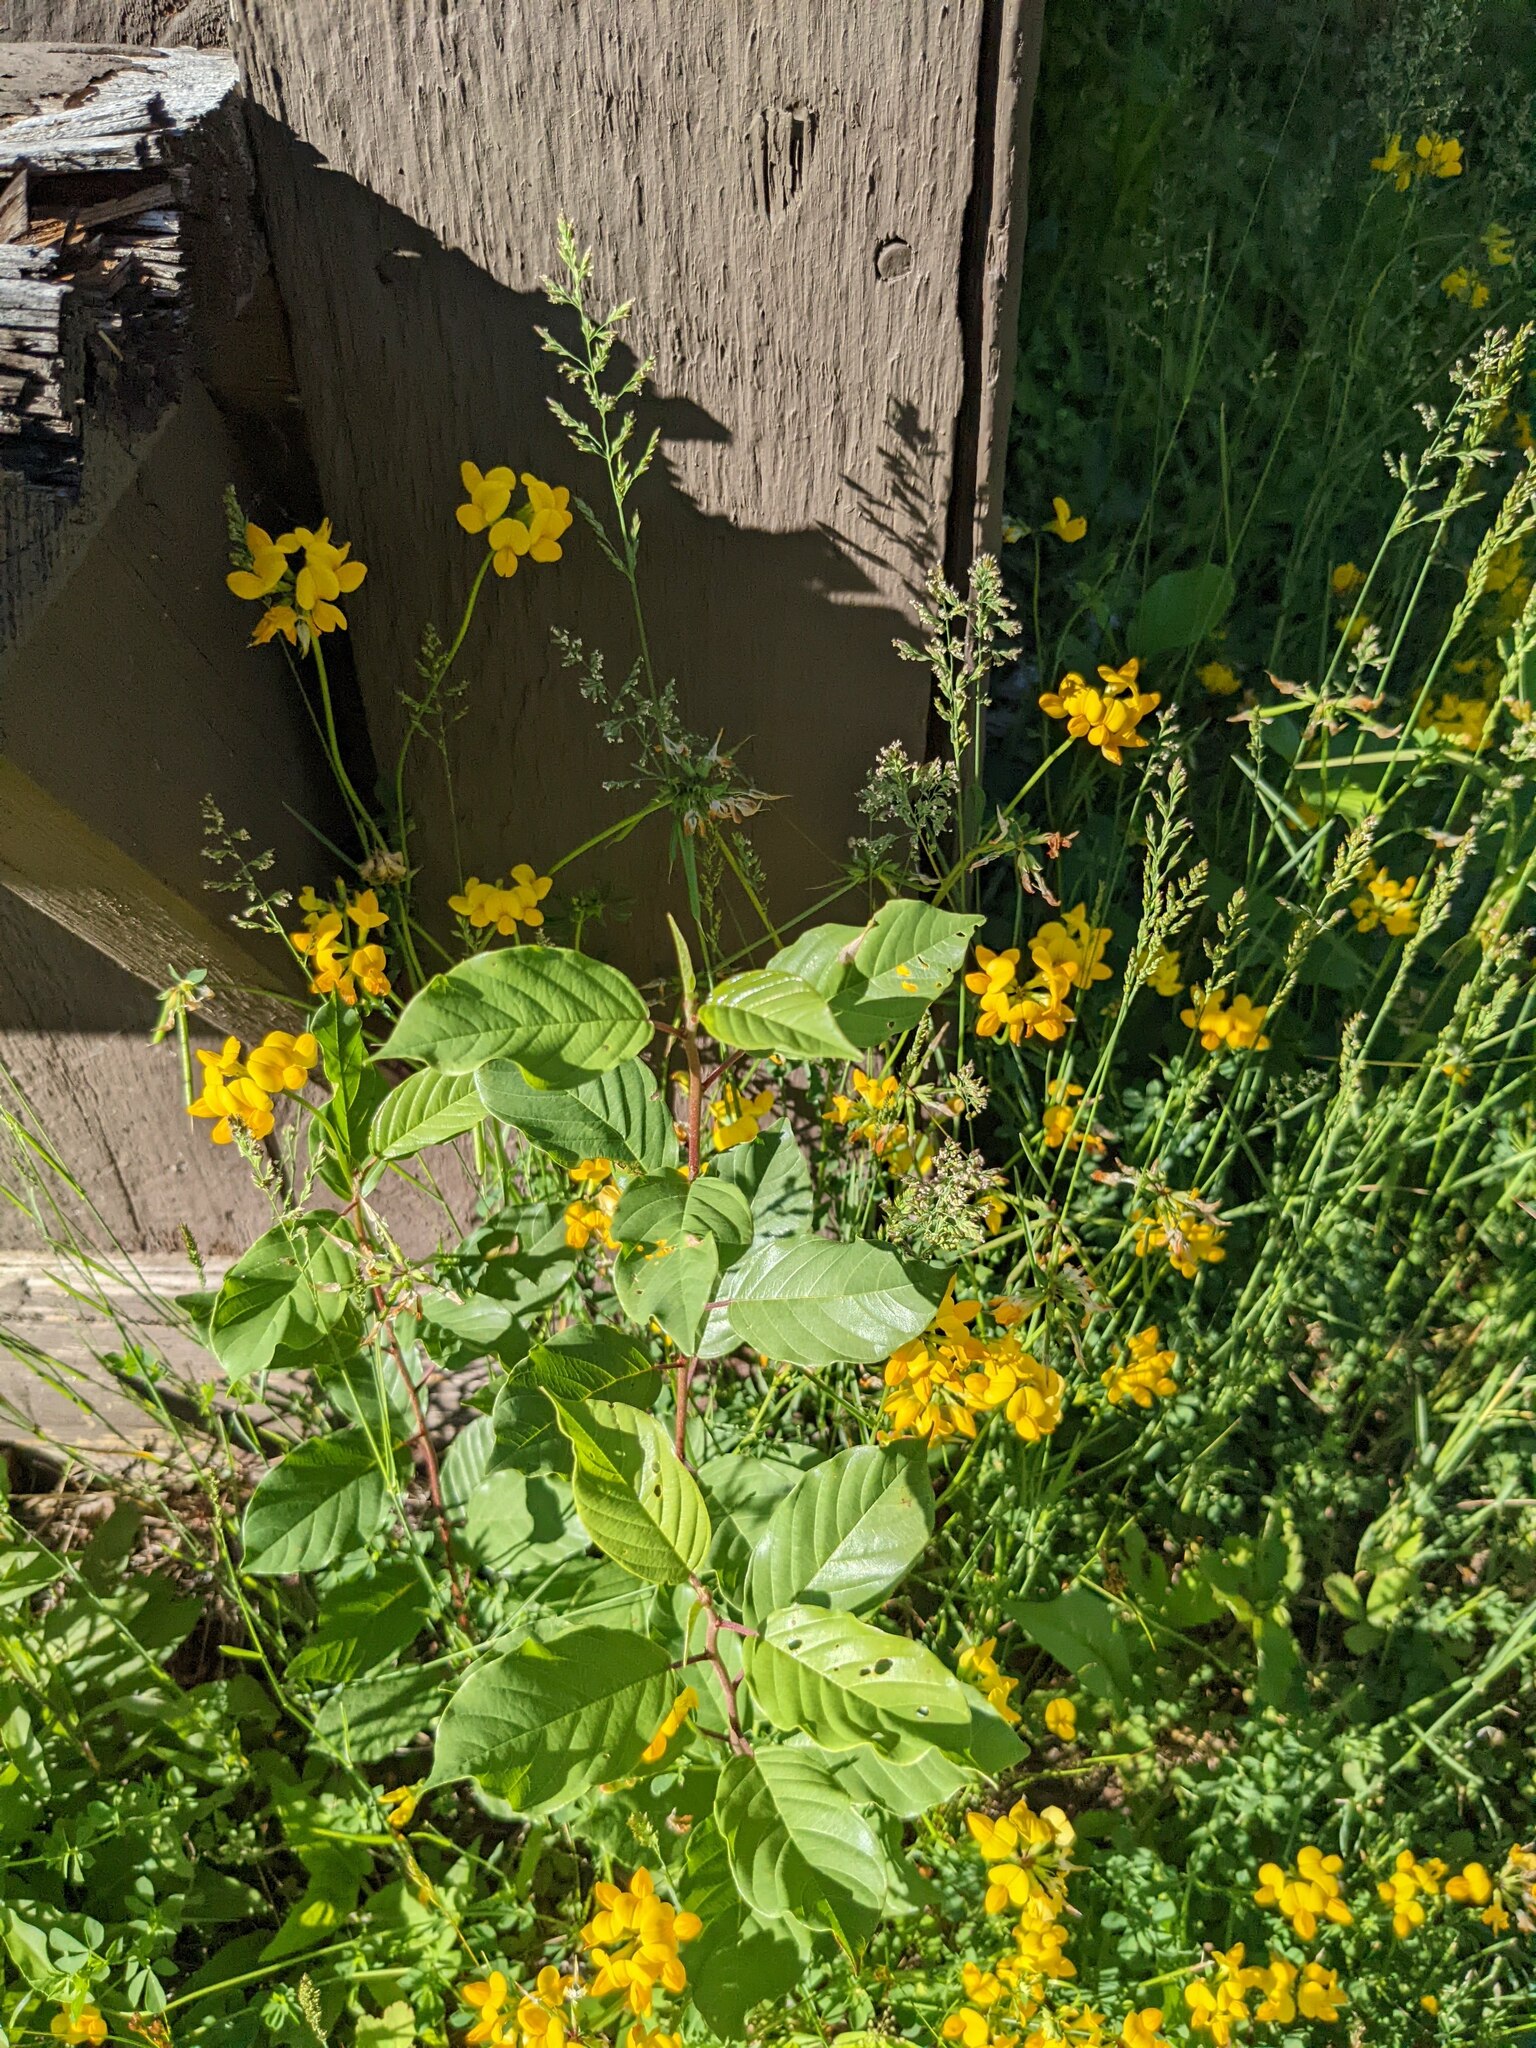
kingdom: Plantae
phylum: Tracheophyta
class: Magnoliopsida
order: Rosales
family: Rhamnaceae
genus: Frangula
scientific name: Frangula alnus
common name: Alder buckthorn
